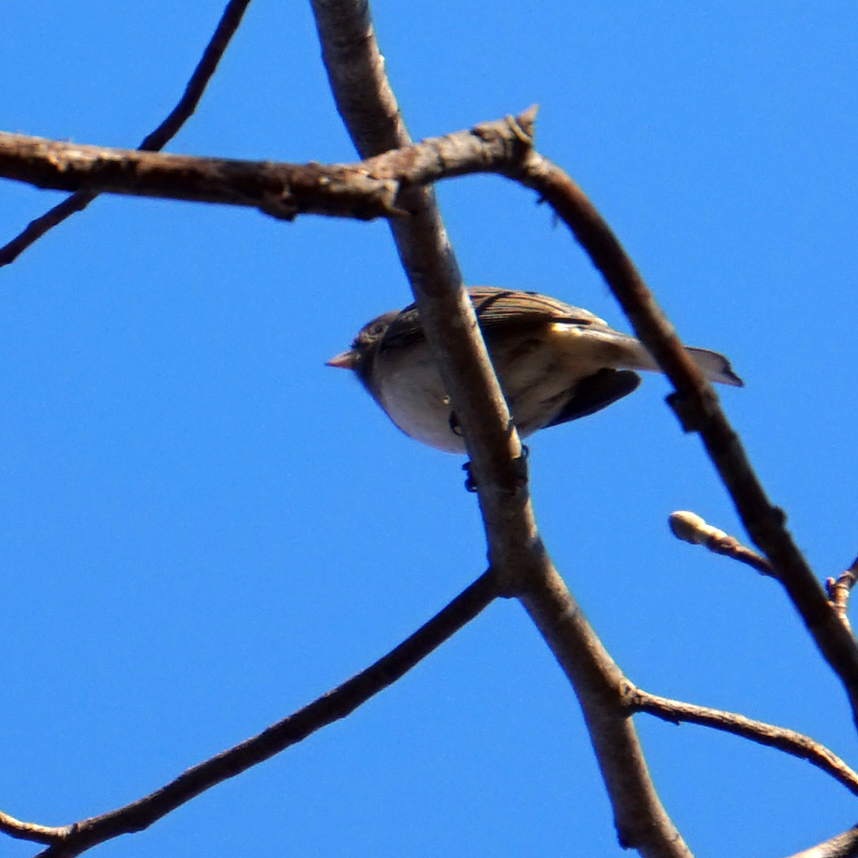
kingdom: Animalia
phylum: Chordata
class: Aves
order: Passeriformes
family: Passerellidae
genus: Junco
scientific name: Junco hyemalis
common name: Dark-eyed junco
